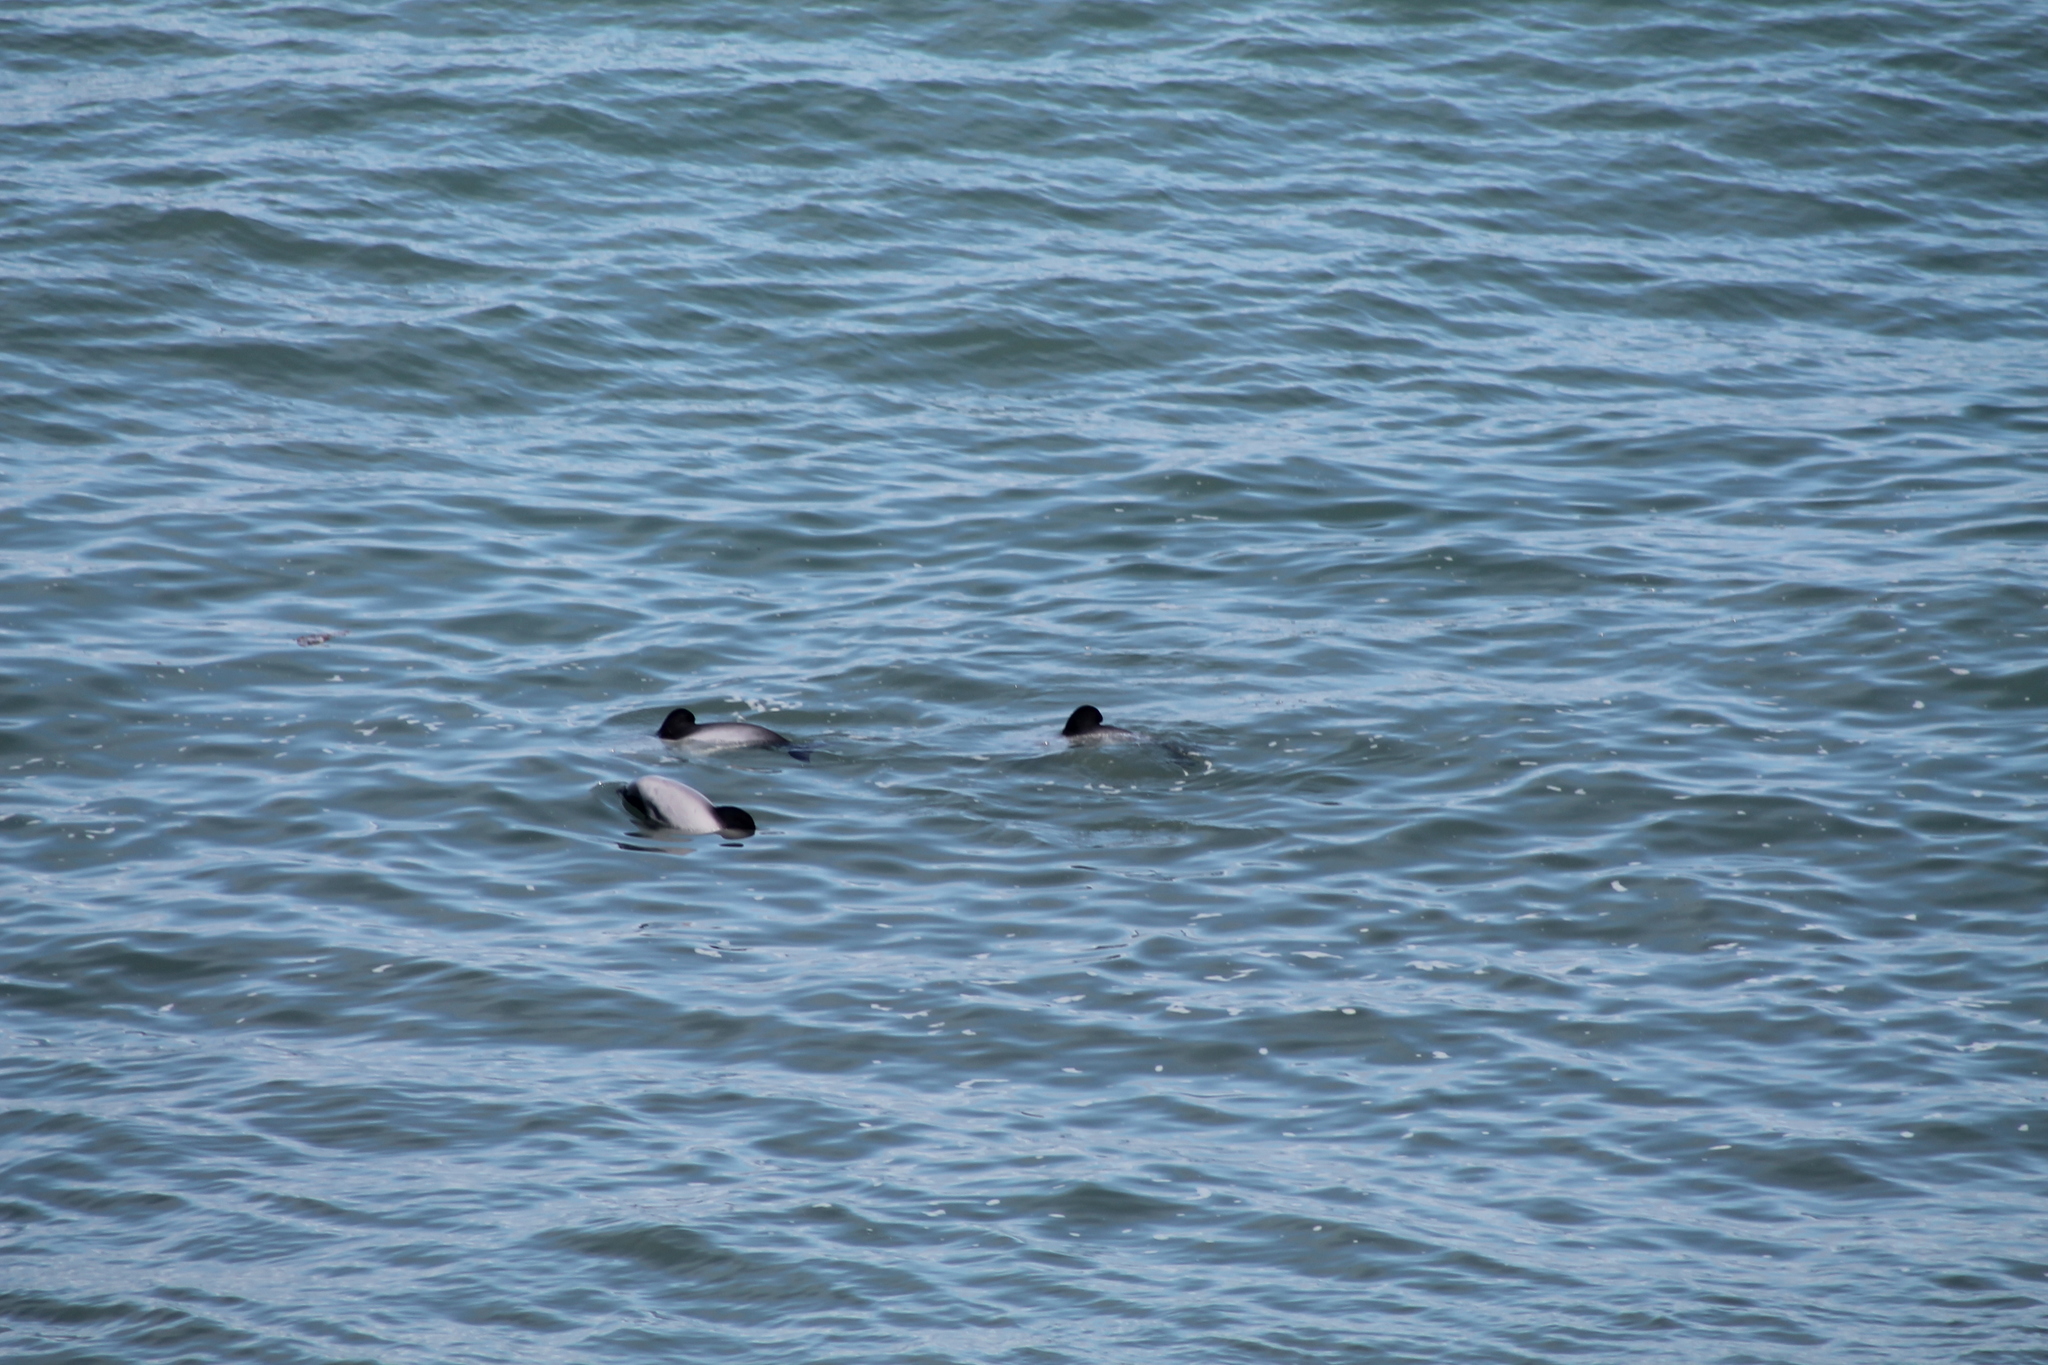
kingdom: Animalia
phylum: Chordata
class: Mammalia
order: Cetacea
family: Delphinidae
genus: Cephalorhynchus
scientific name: Cephalorhynchus hectori
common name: Hector's dolphin
